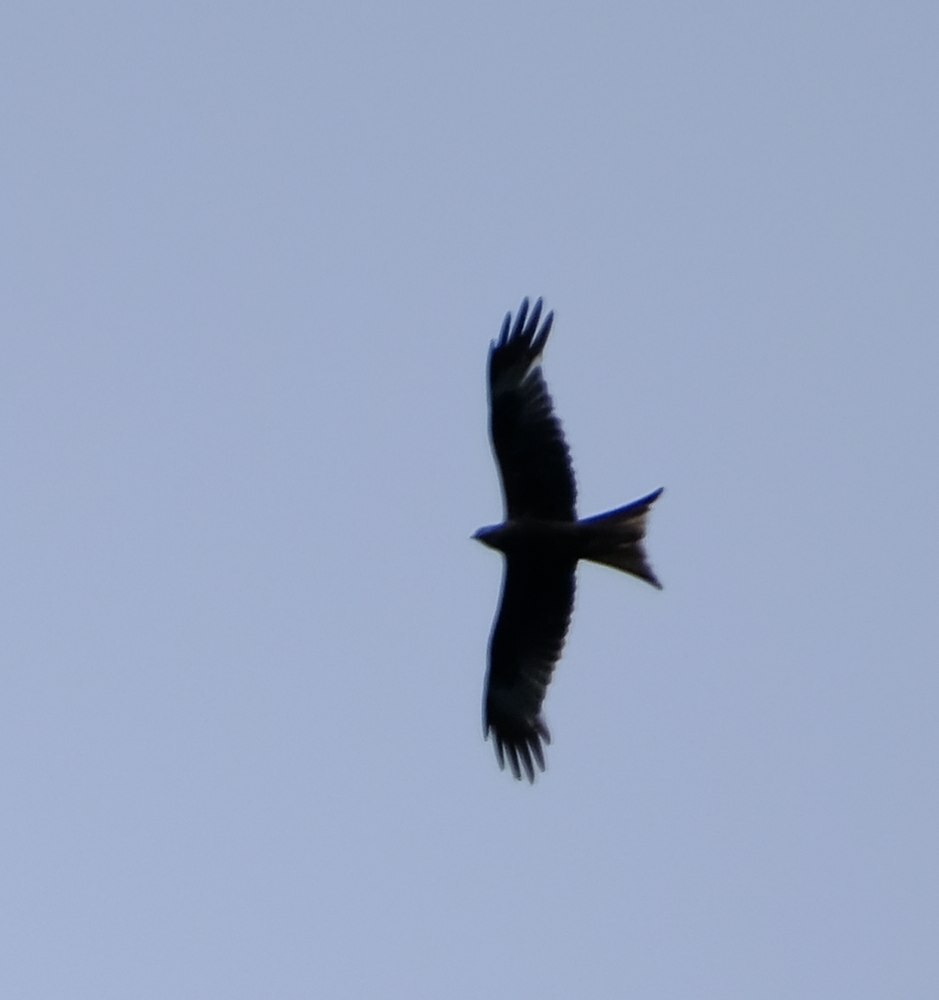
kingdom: Animalia
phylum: Chordata
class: Aves
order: Accipitriformes
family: Accipitridae
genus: Milvus
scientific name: Milvus milvus
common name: Red kite
